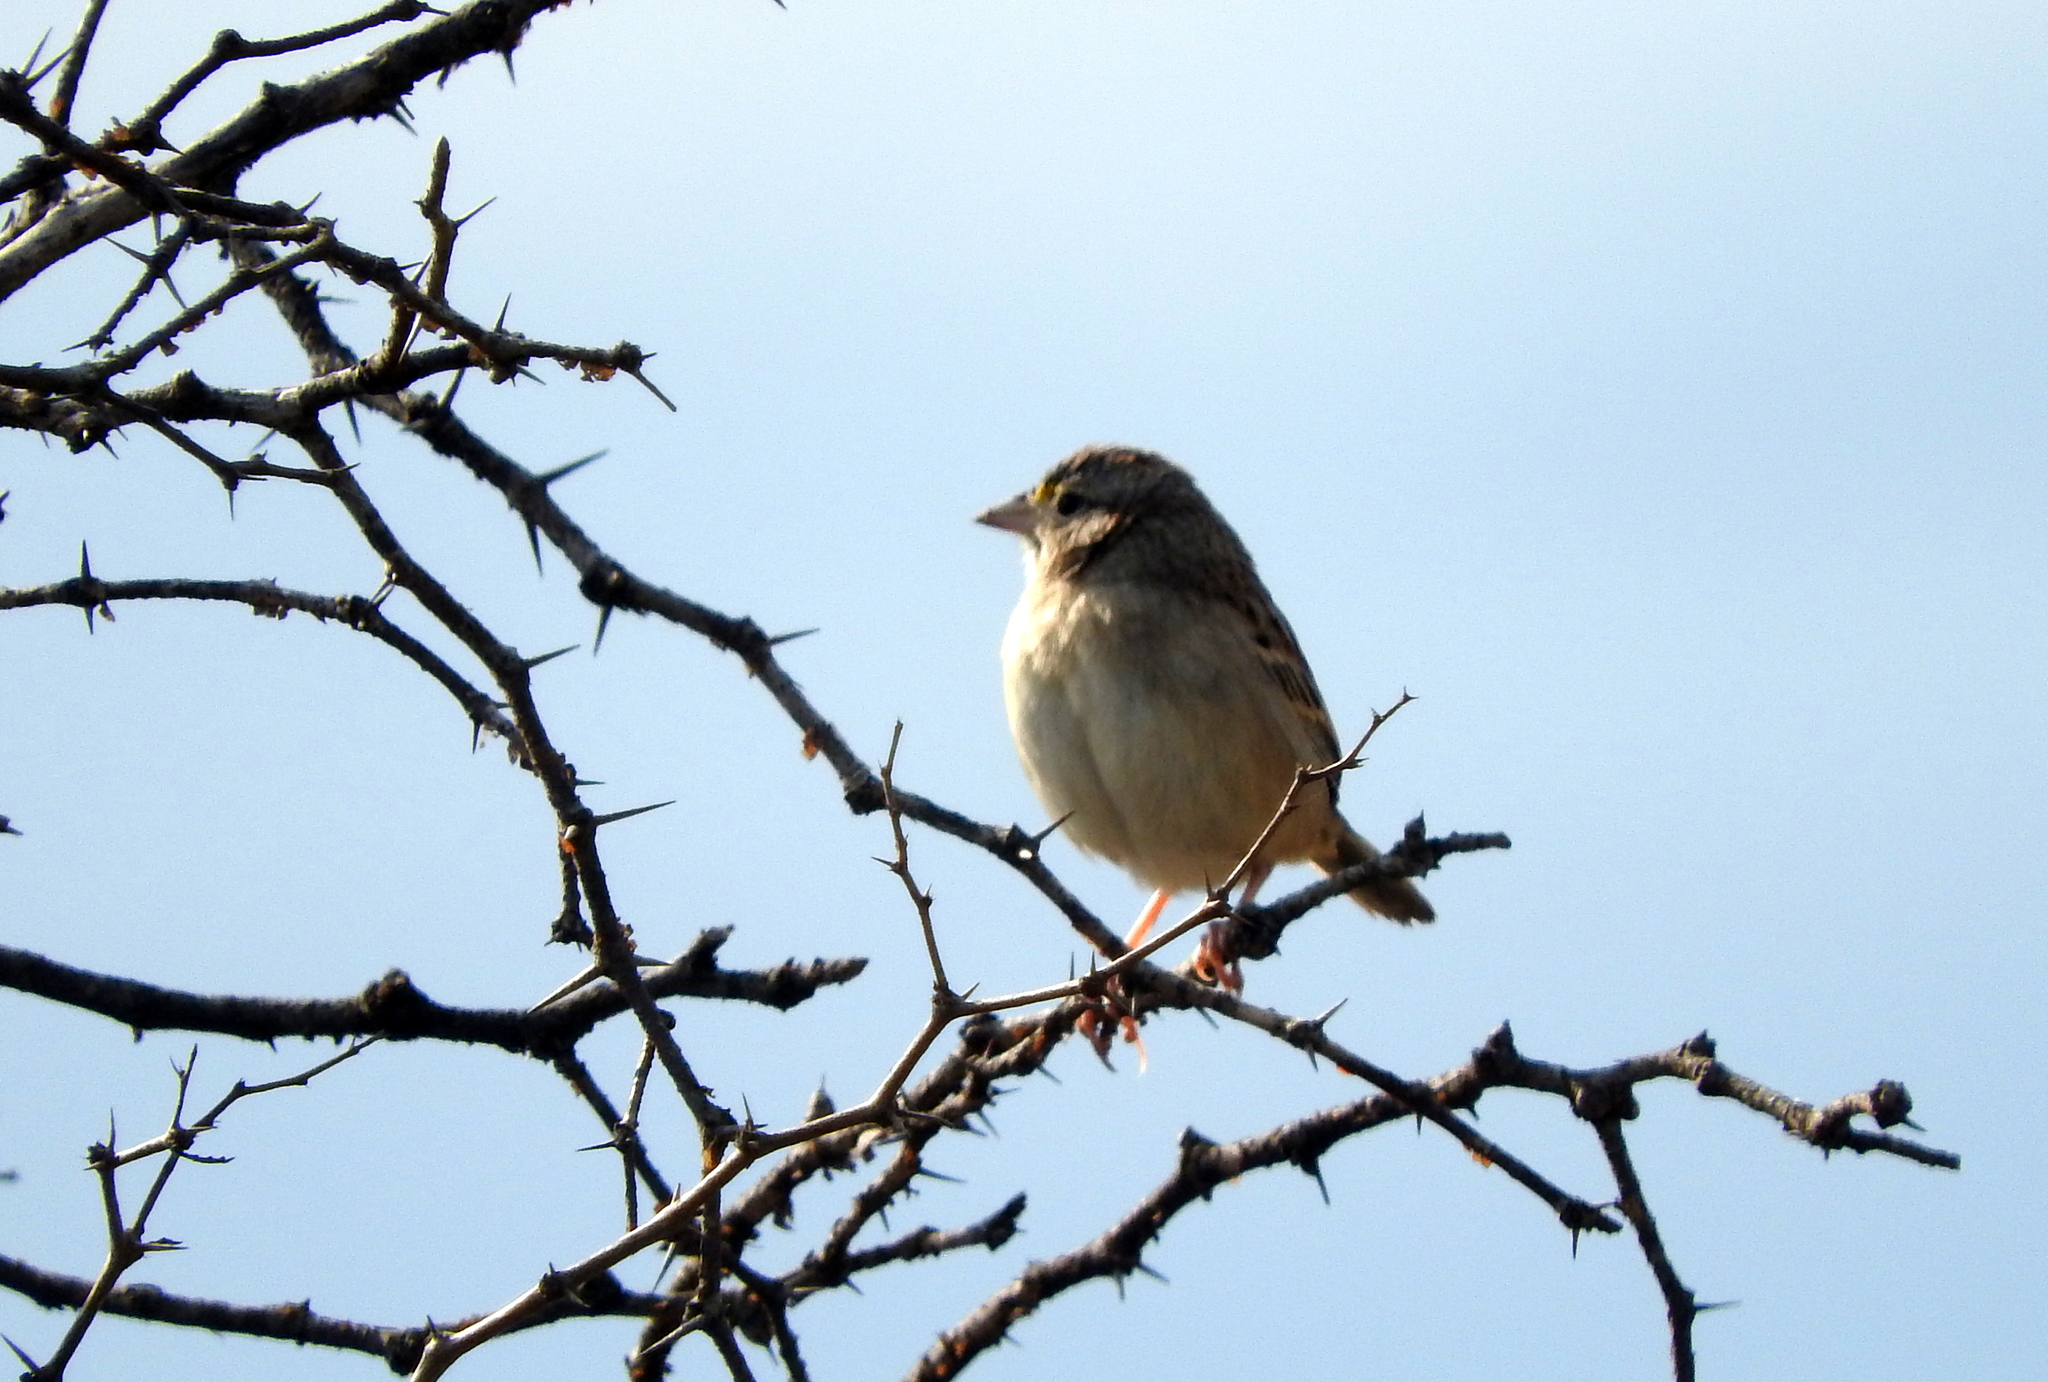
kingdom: Animalia
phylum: Chordata
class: Aves
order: Passeriformes
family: Passerellidae
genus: Ammodramus
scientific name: Ammodramus humeralis
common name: Grassland sparrow
